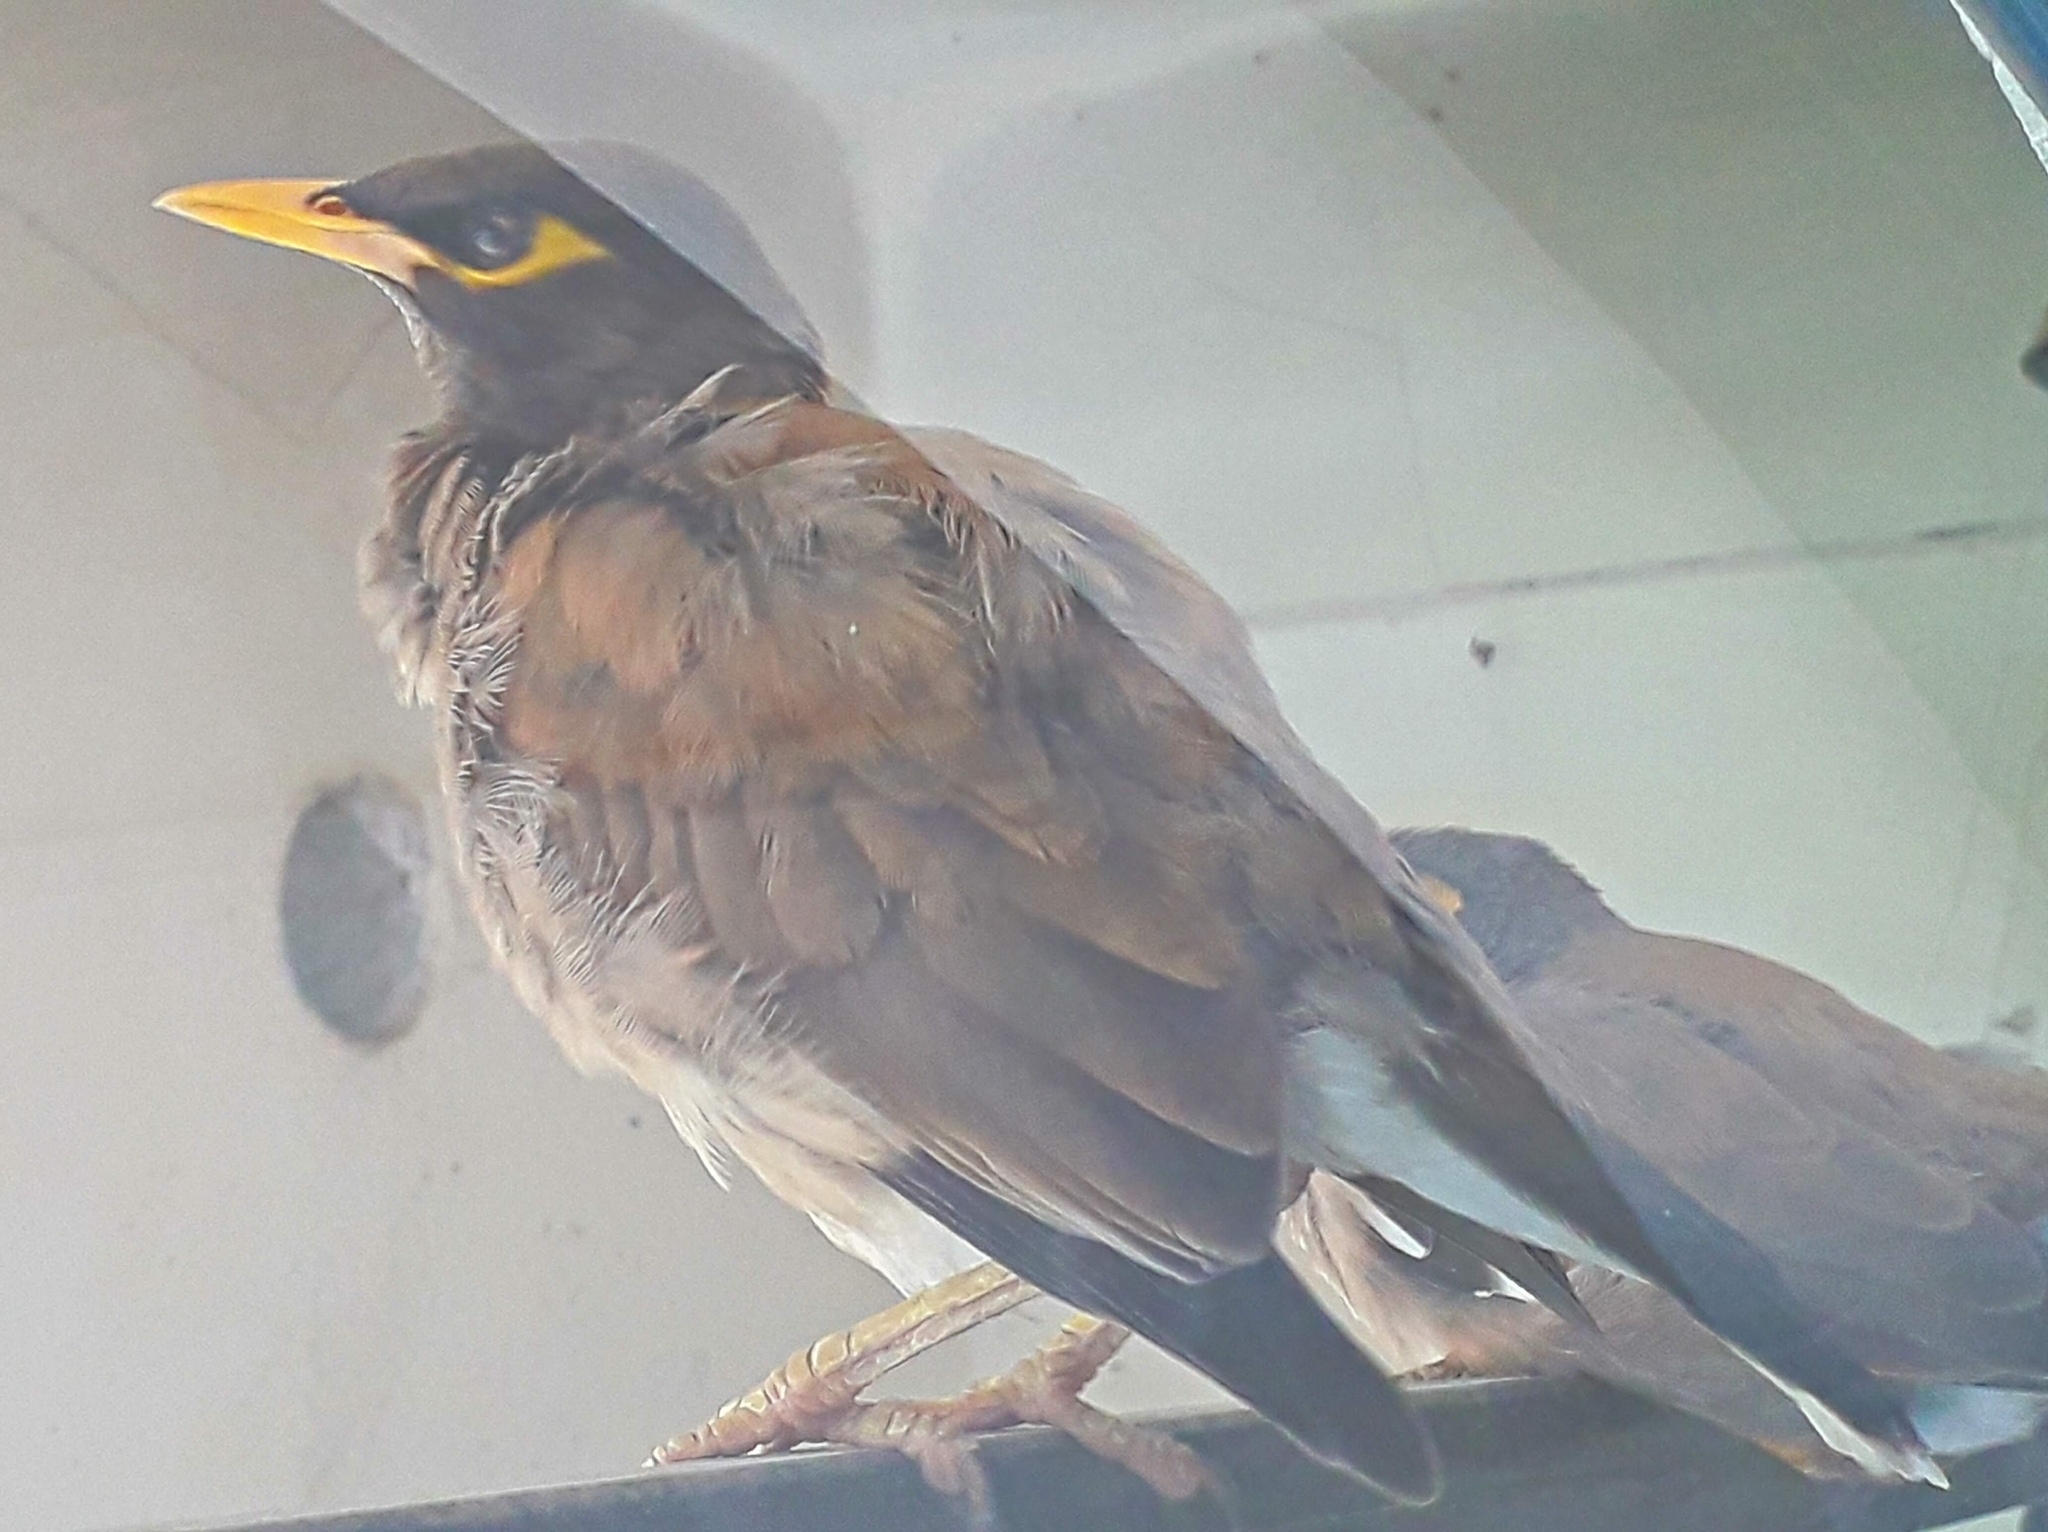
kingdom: Animalia
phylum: Chordata
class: Aves
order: Passeriformes
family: Sturnidae
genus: Acridotheres
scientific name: Acridotheres tristis
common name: Common myna
